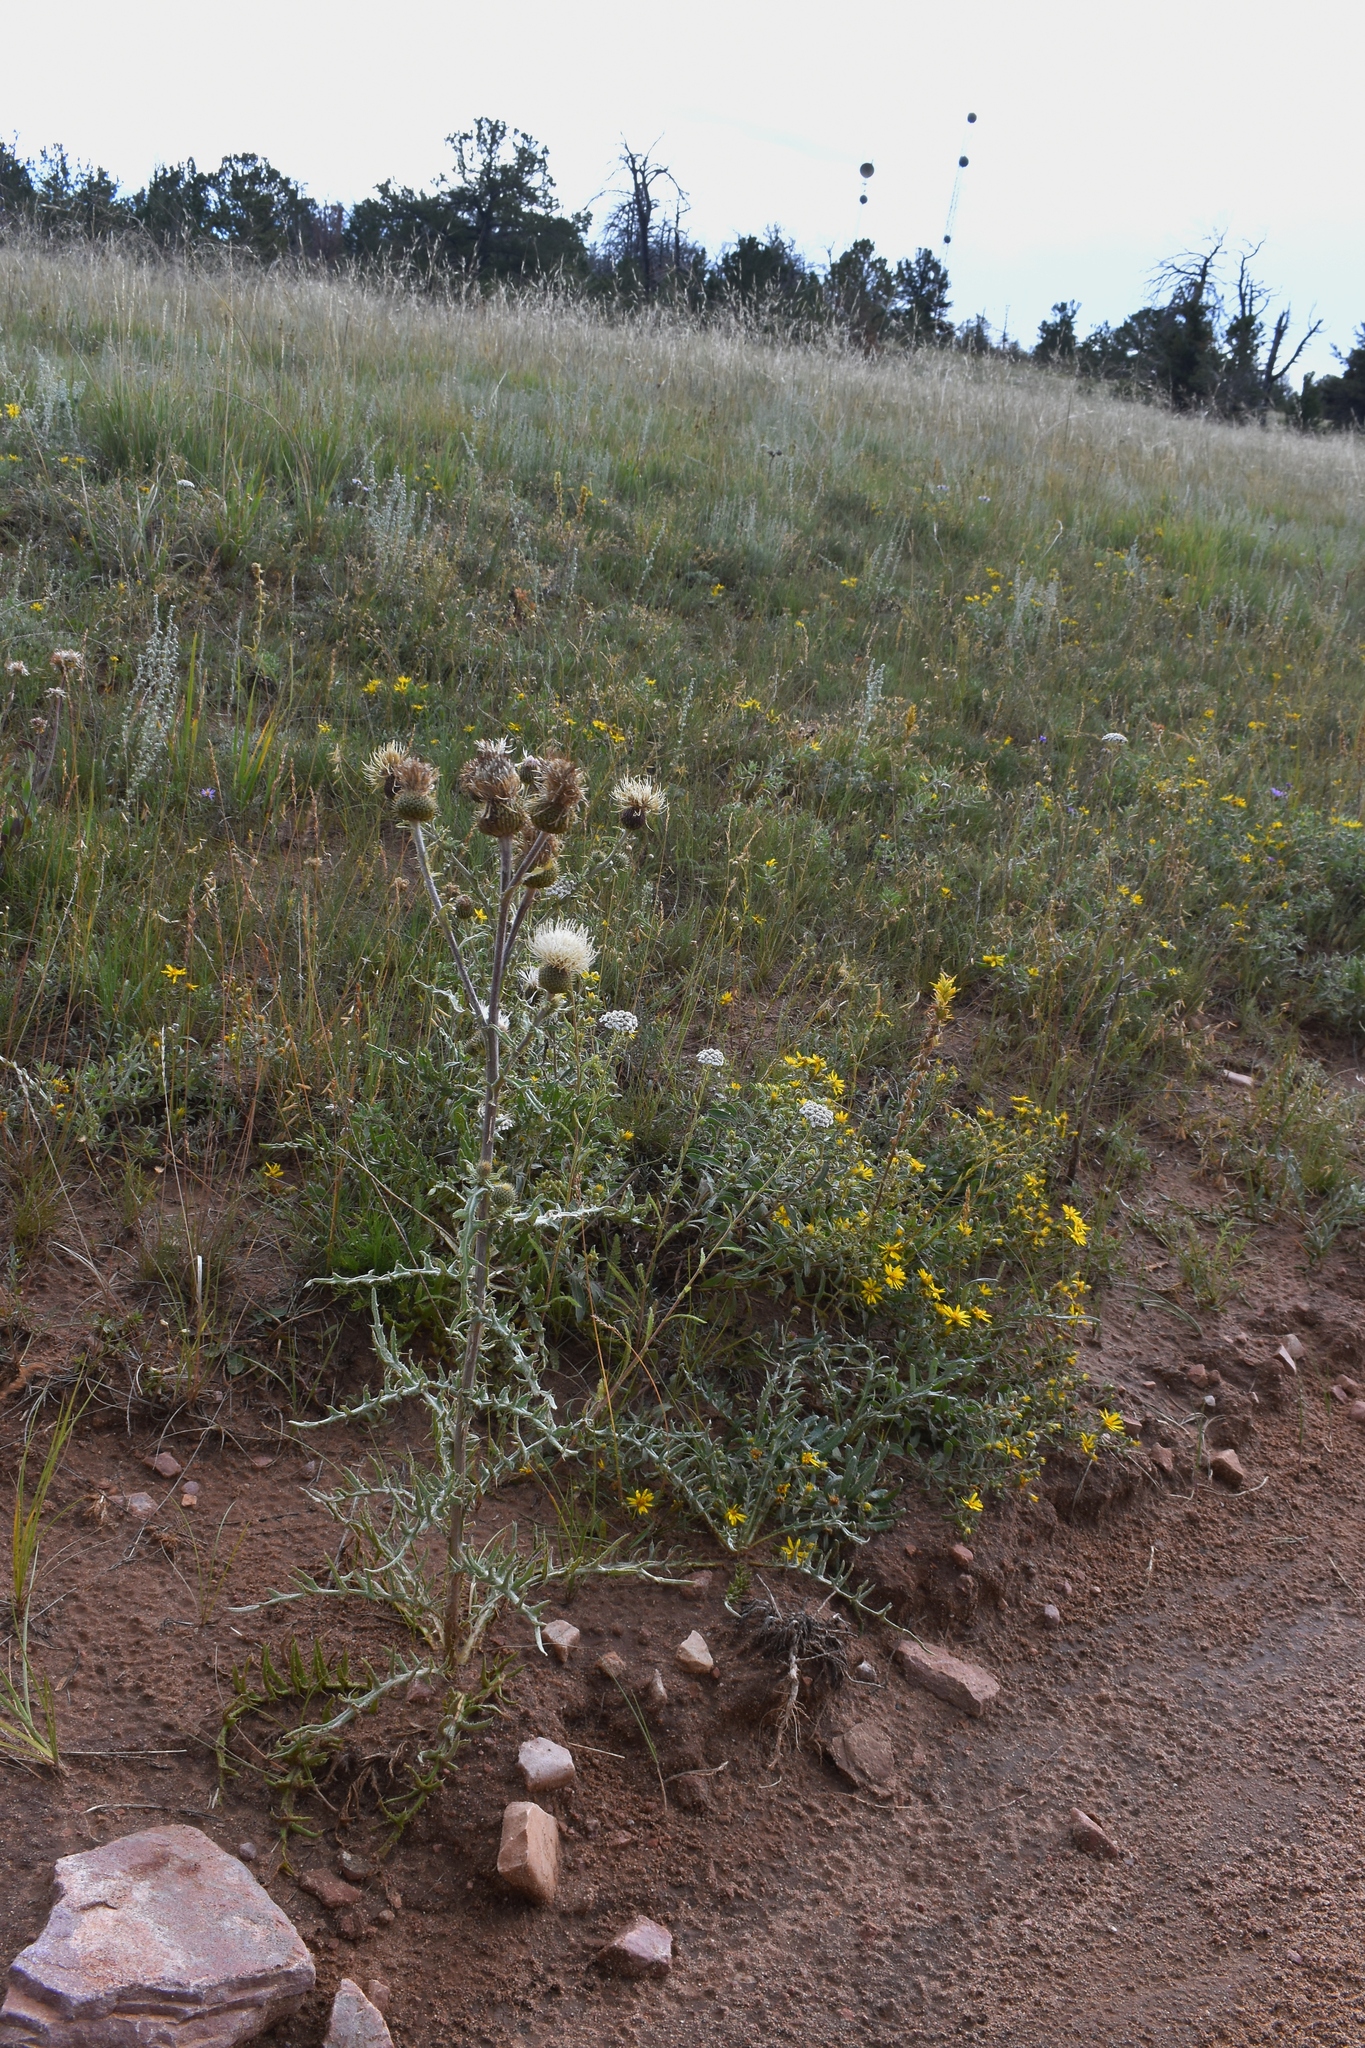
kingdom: Plantae
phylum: Tracheophyta
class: Magnoliopsida
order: Asterales
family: Asteraceae
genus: Cirsium
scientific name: Cirsium canescens
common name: Prairie thistle
